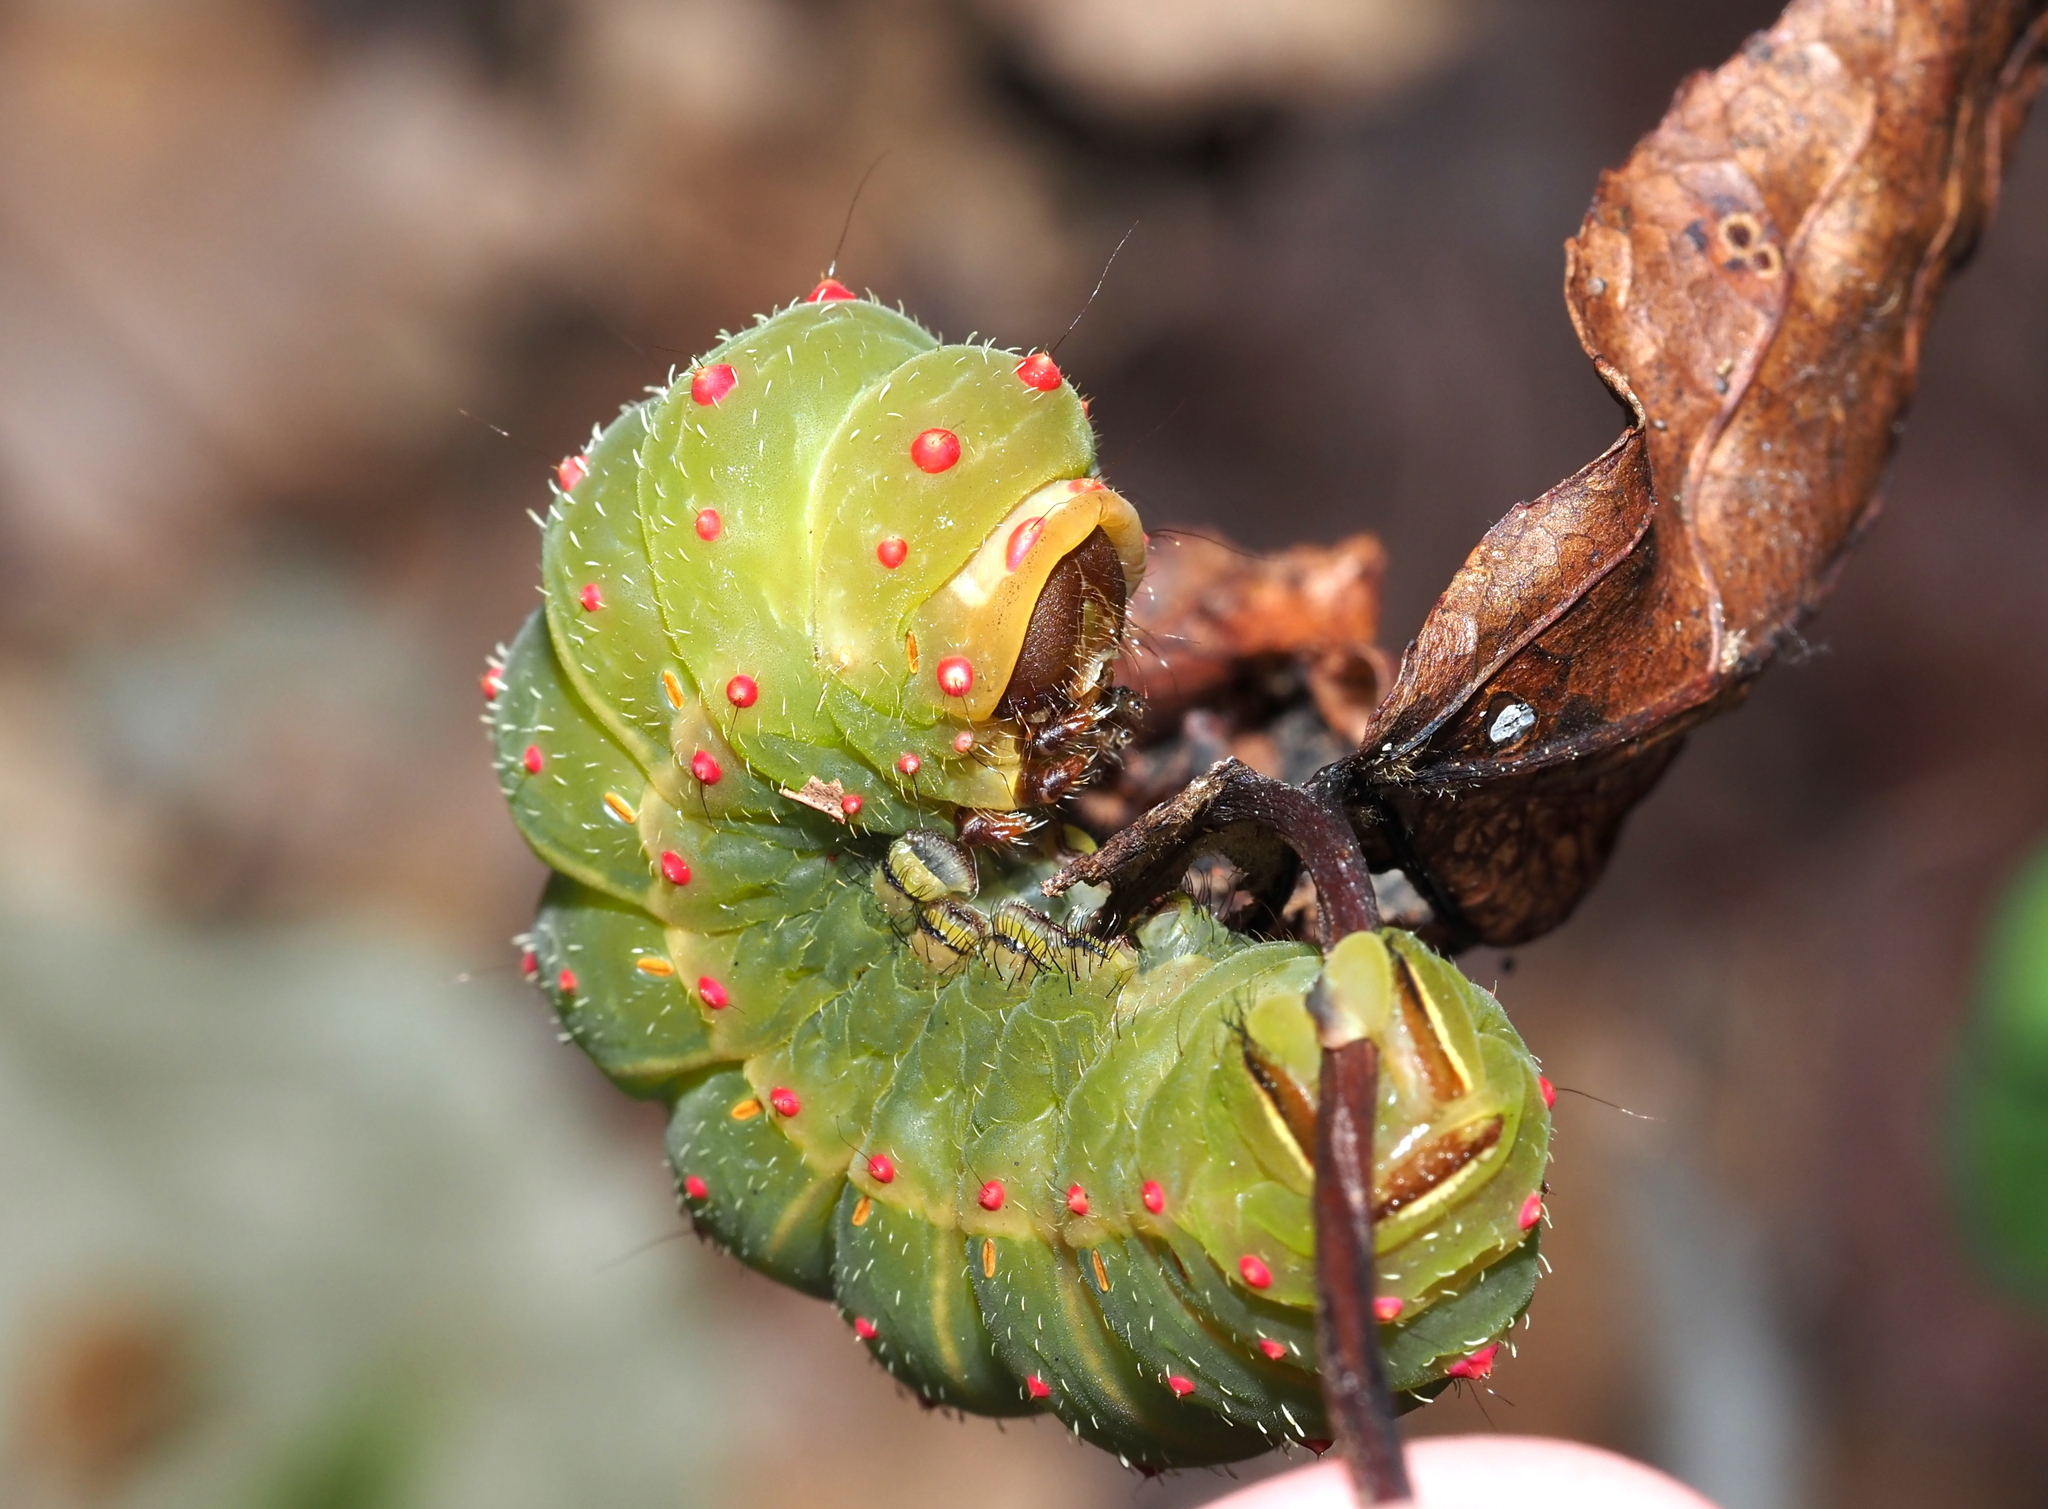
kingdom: Animalia
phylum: Arthropoda
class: Insecta
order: Lepidoptera
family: Saturniidae
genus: Actias
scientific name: Actias luna
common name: Luna moth
